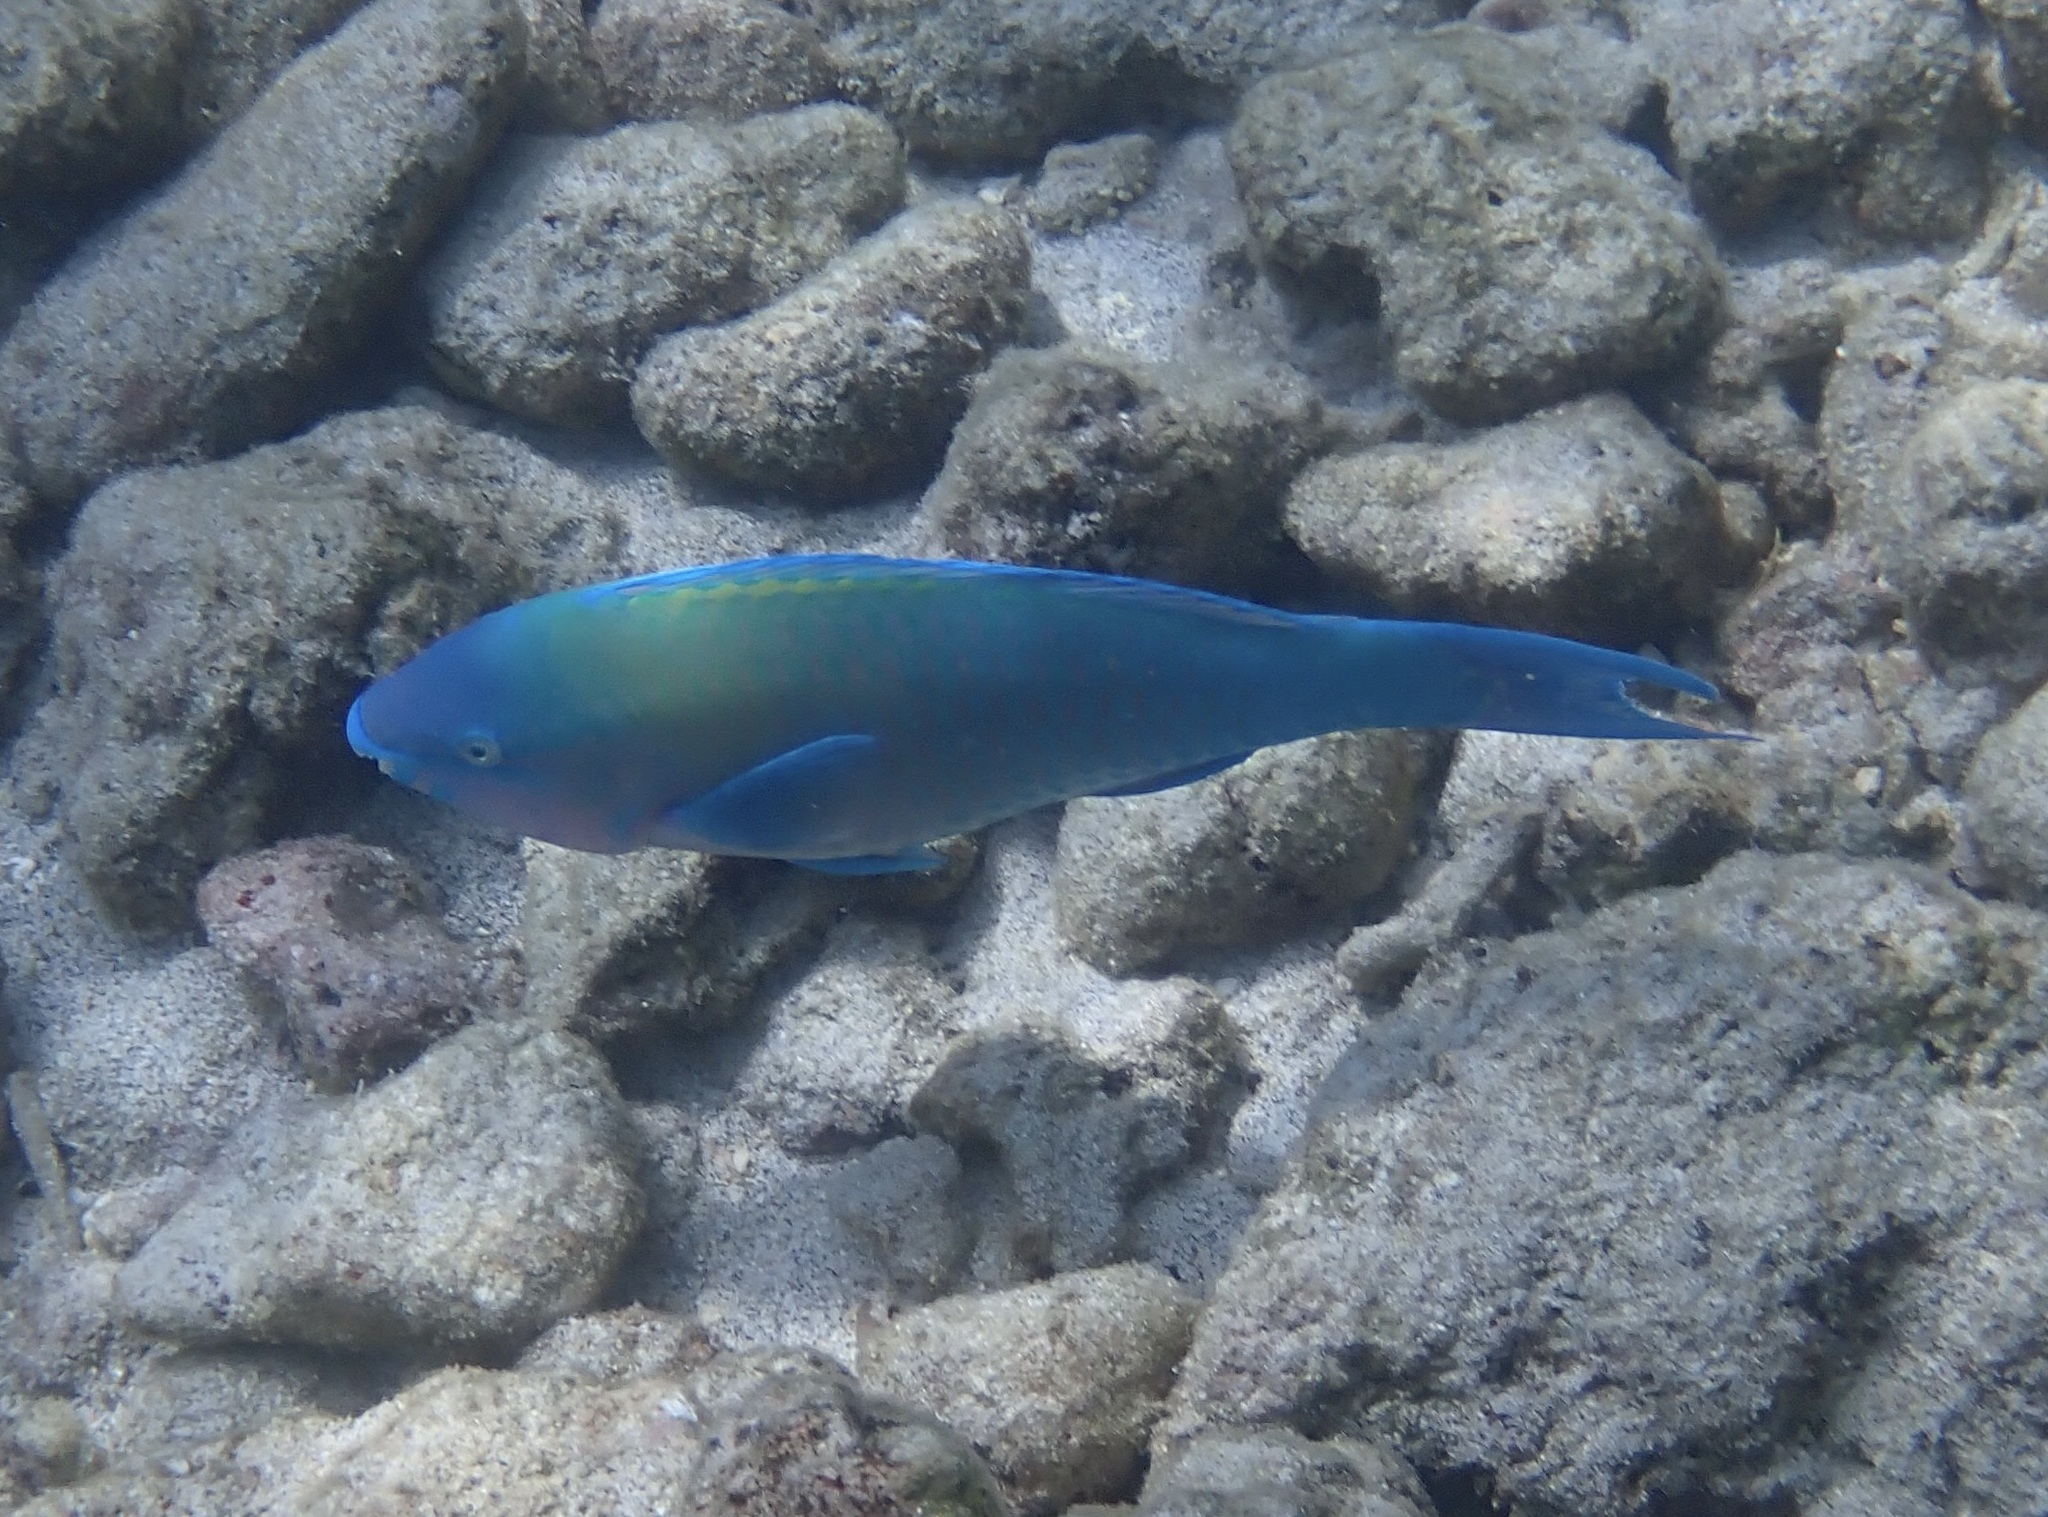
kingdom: Animalia
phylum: Chordata
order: Perciformes
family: Scaridae
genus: Scarus
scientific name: Scarus psittacus
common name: Palenose parrotfish
